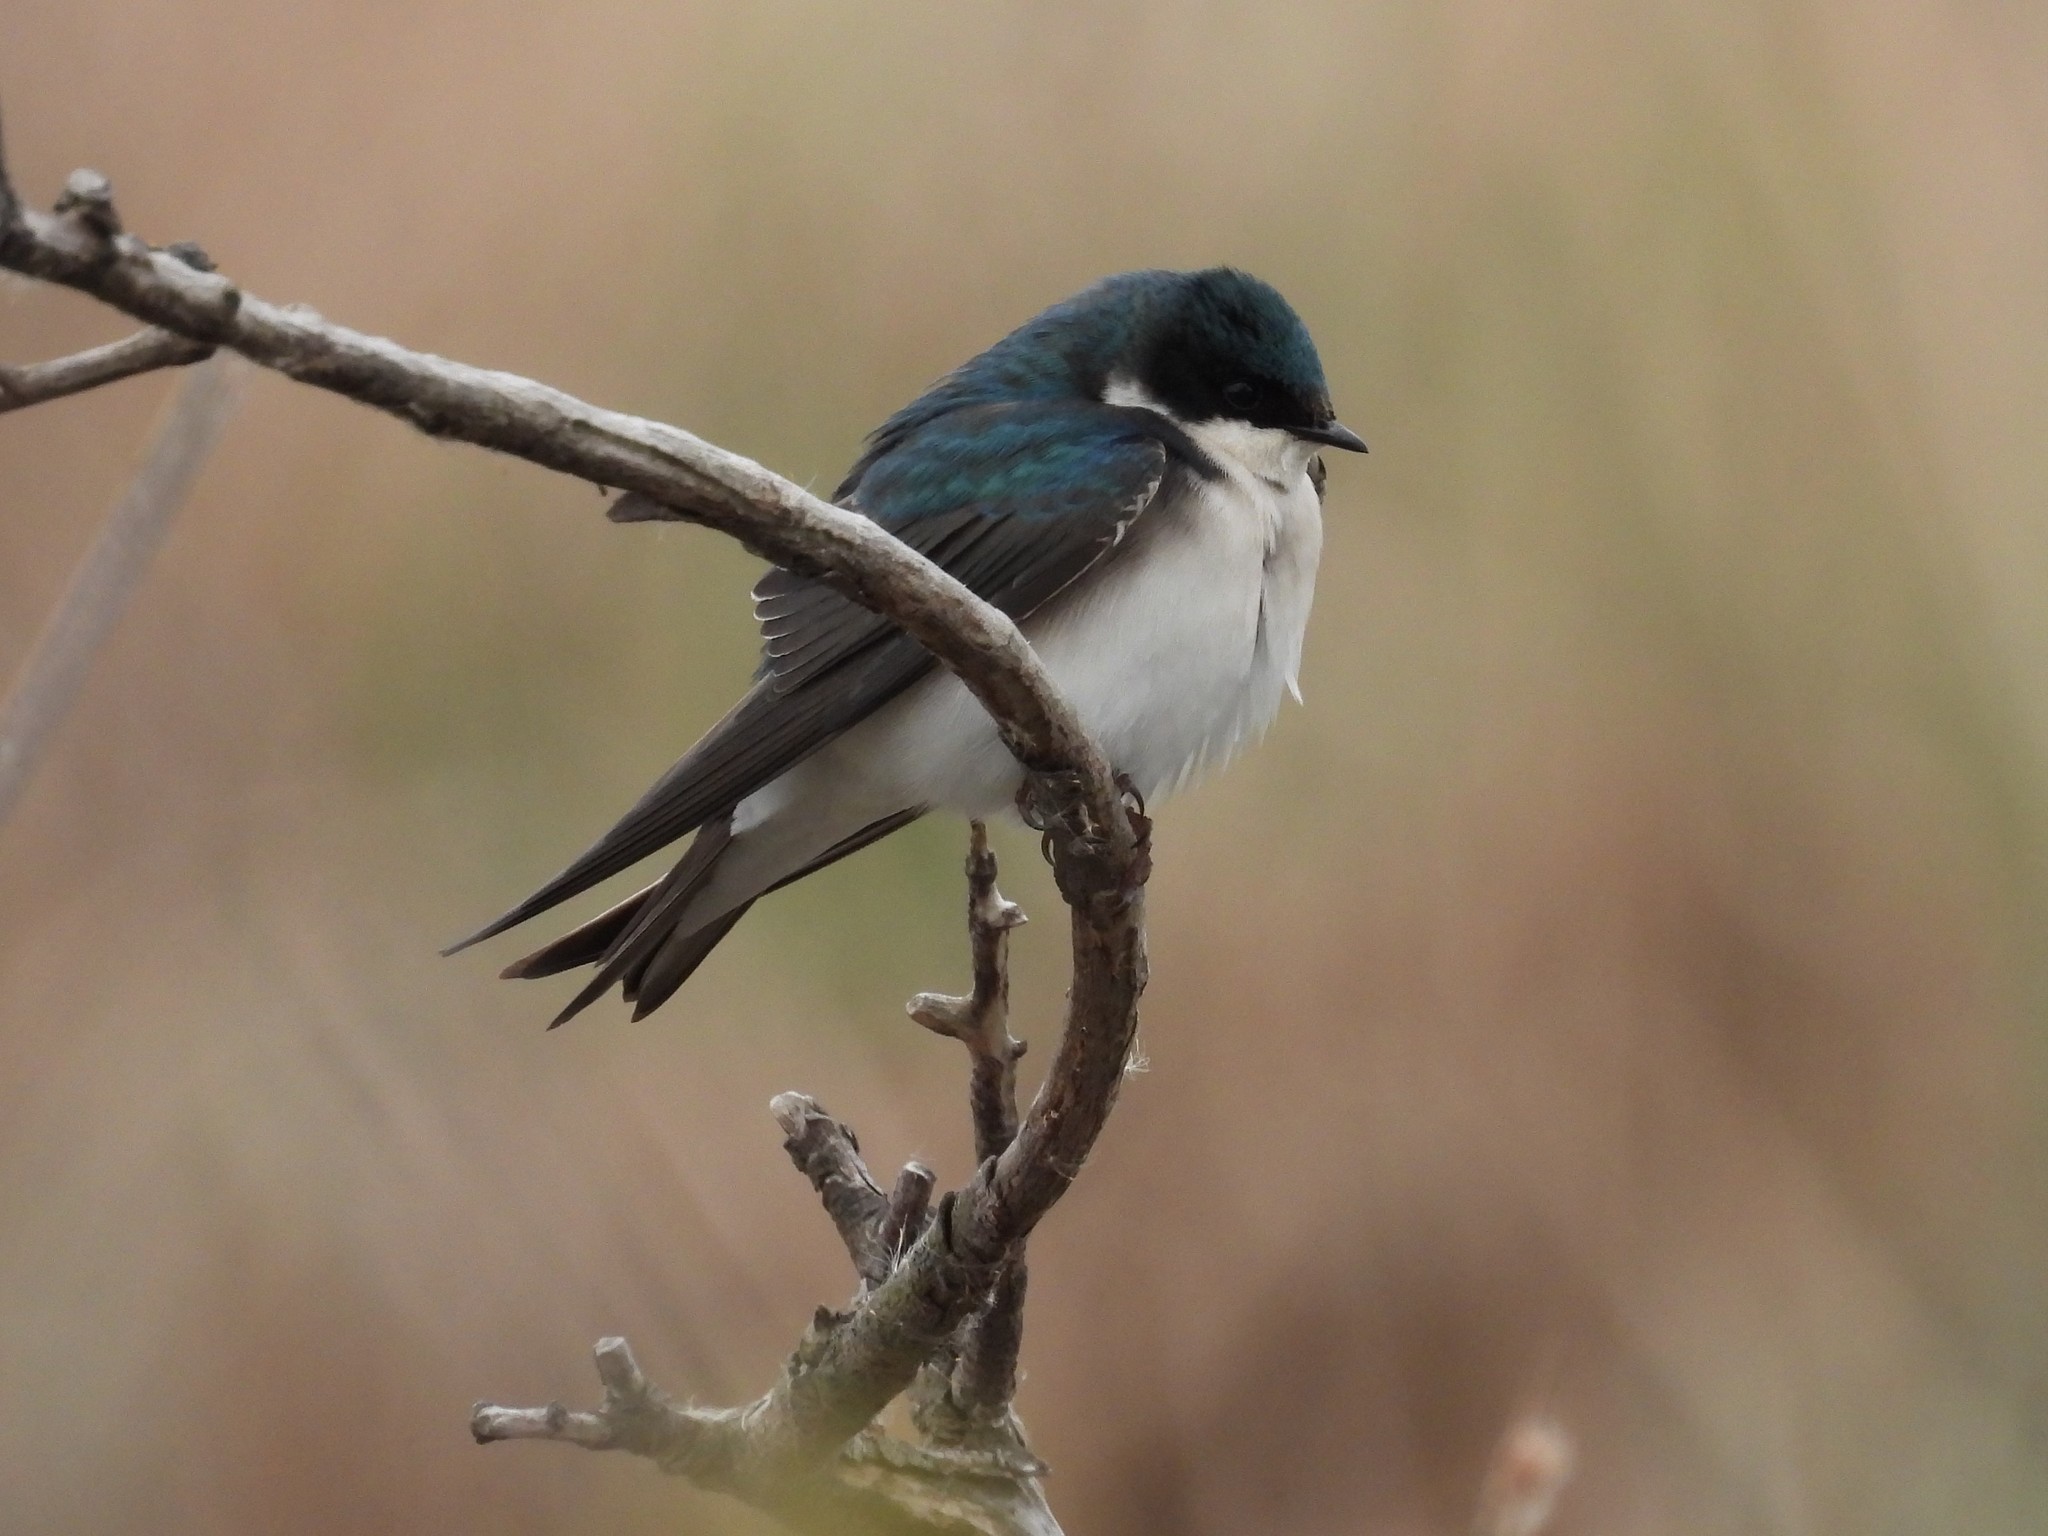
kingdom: Animalia
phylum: Chordata
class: Aves
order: Passeriformes
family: Hirundinidae
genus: Tachycineta
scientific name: Tachycineta bicolor
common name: Tree swallow
